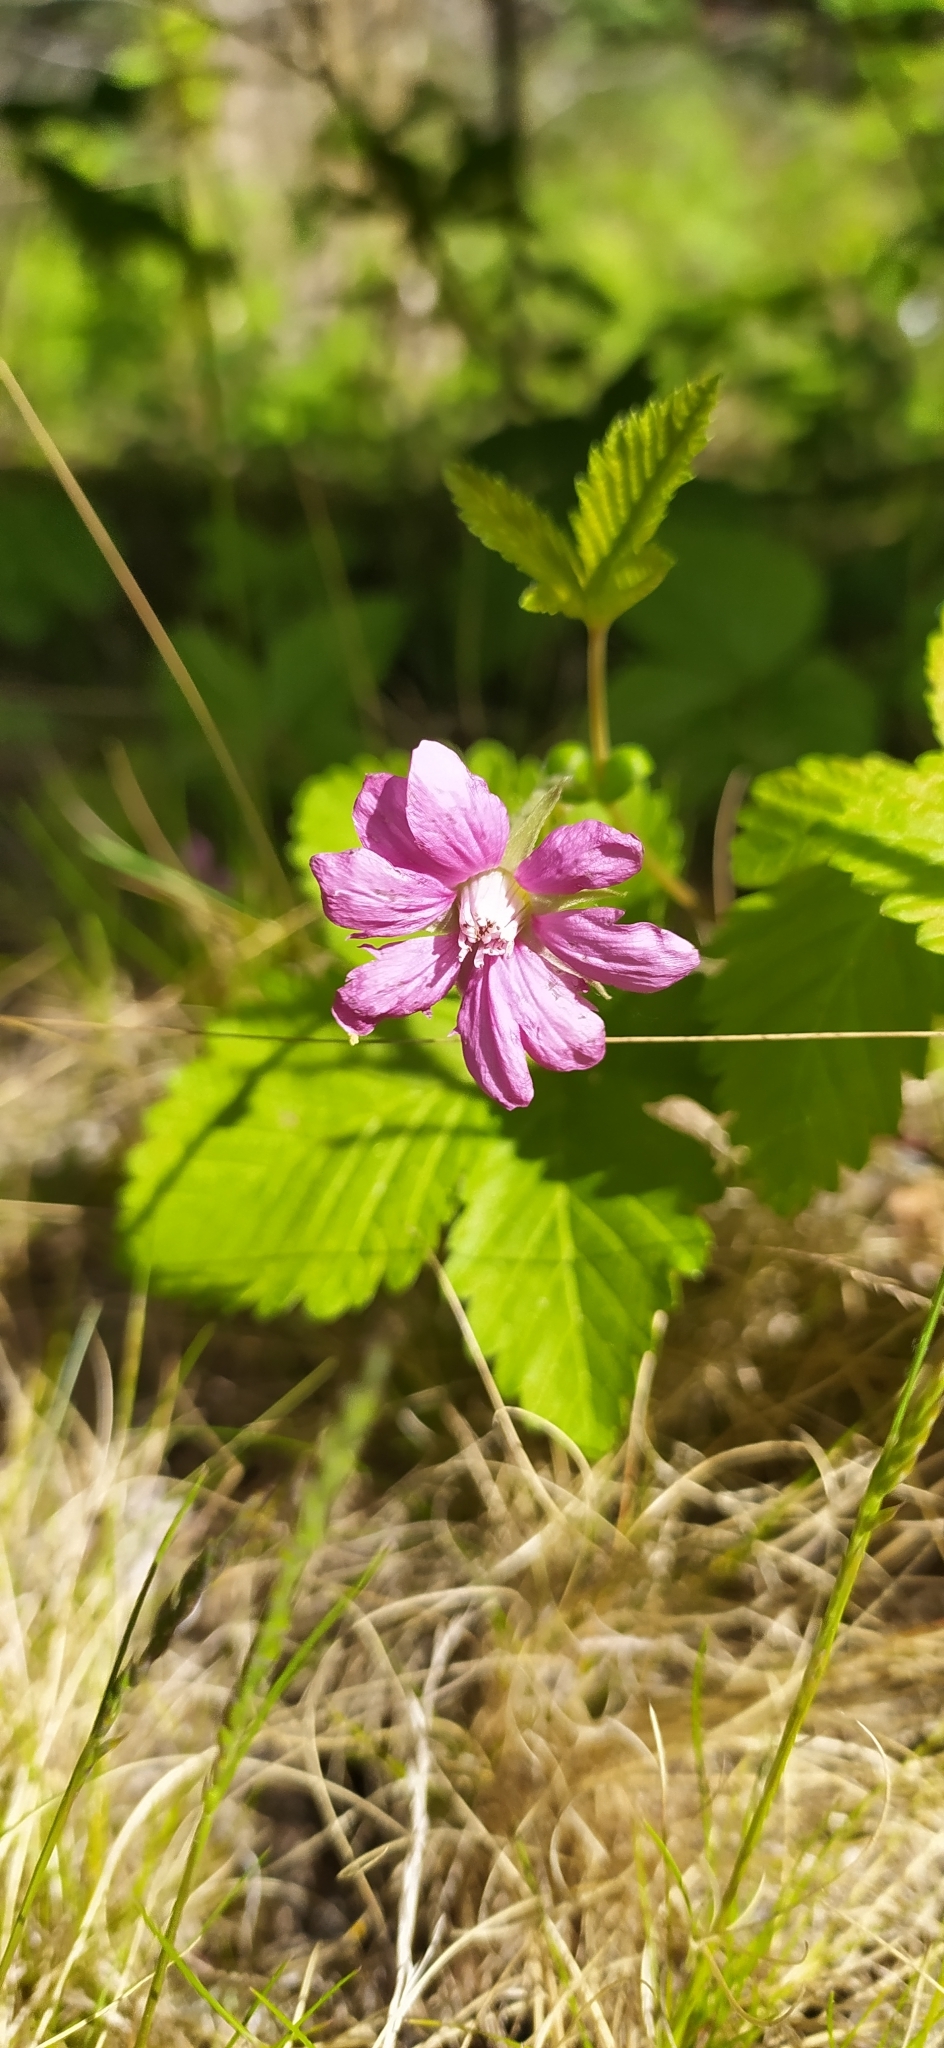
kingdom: Plantae
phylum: Tracheophyta
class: Magnoliopsida
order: Rosales
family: Rosaceae
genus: Rubus
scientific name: Rubus arcticus
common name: Arctic bramble
